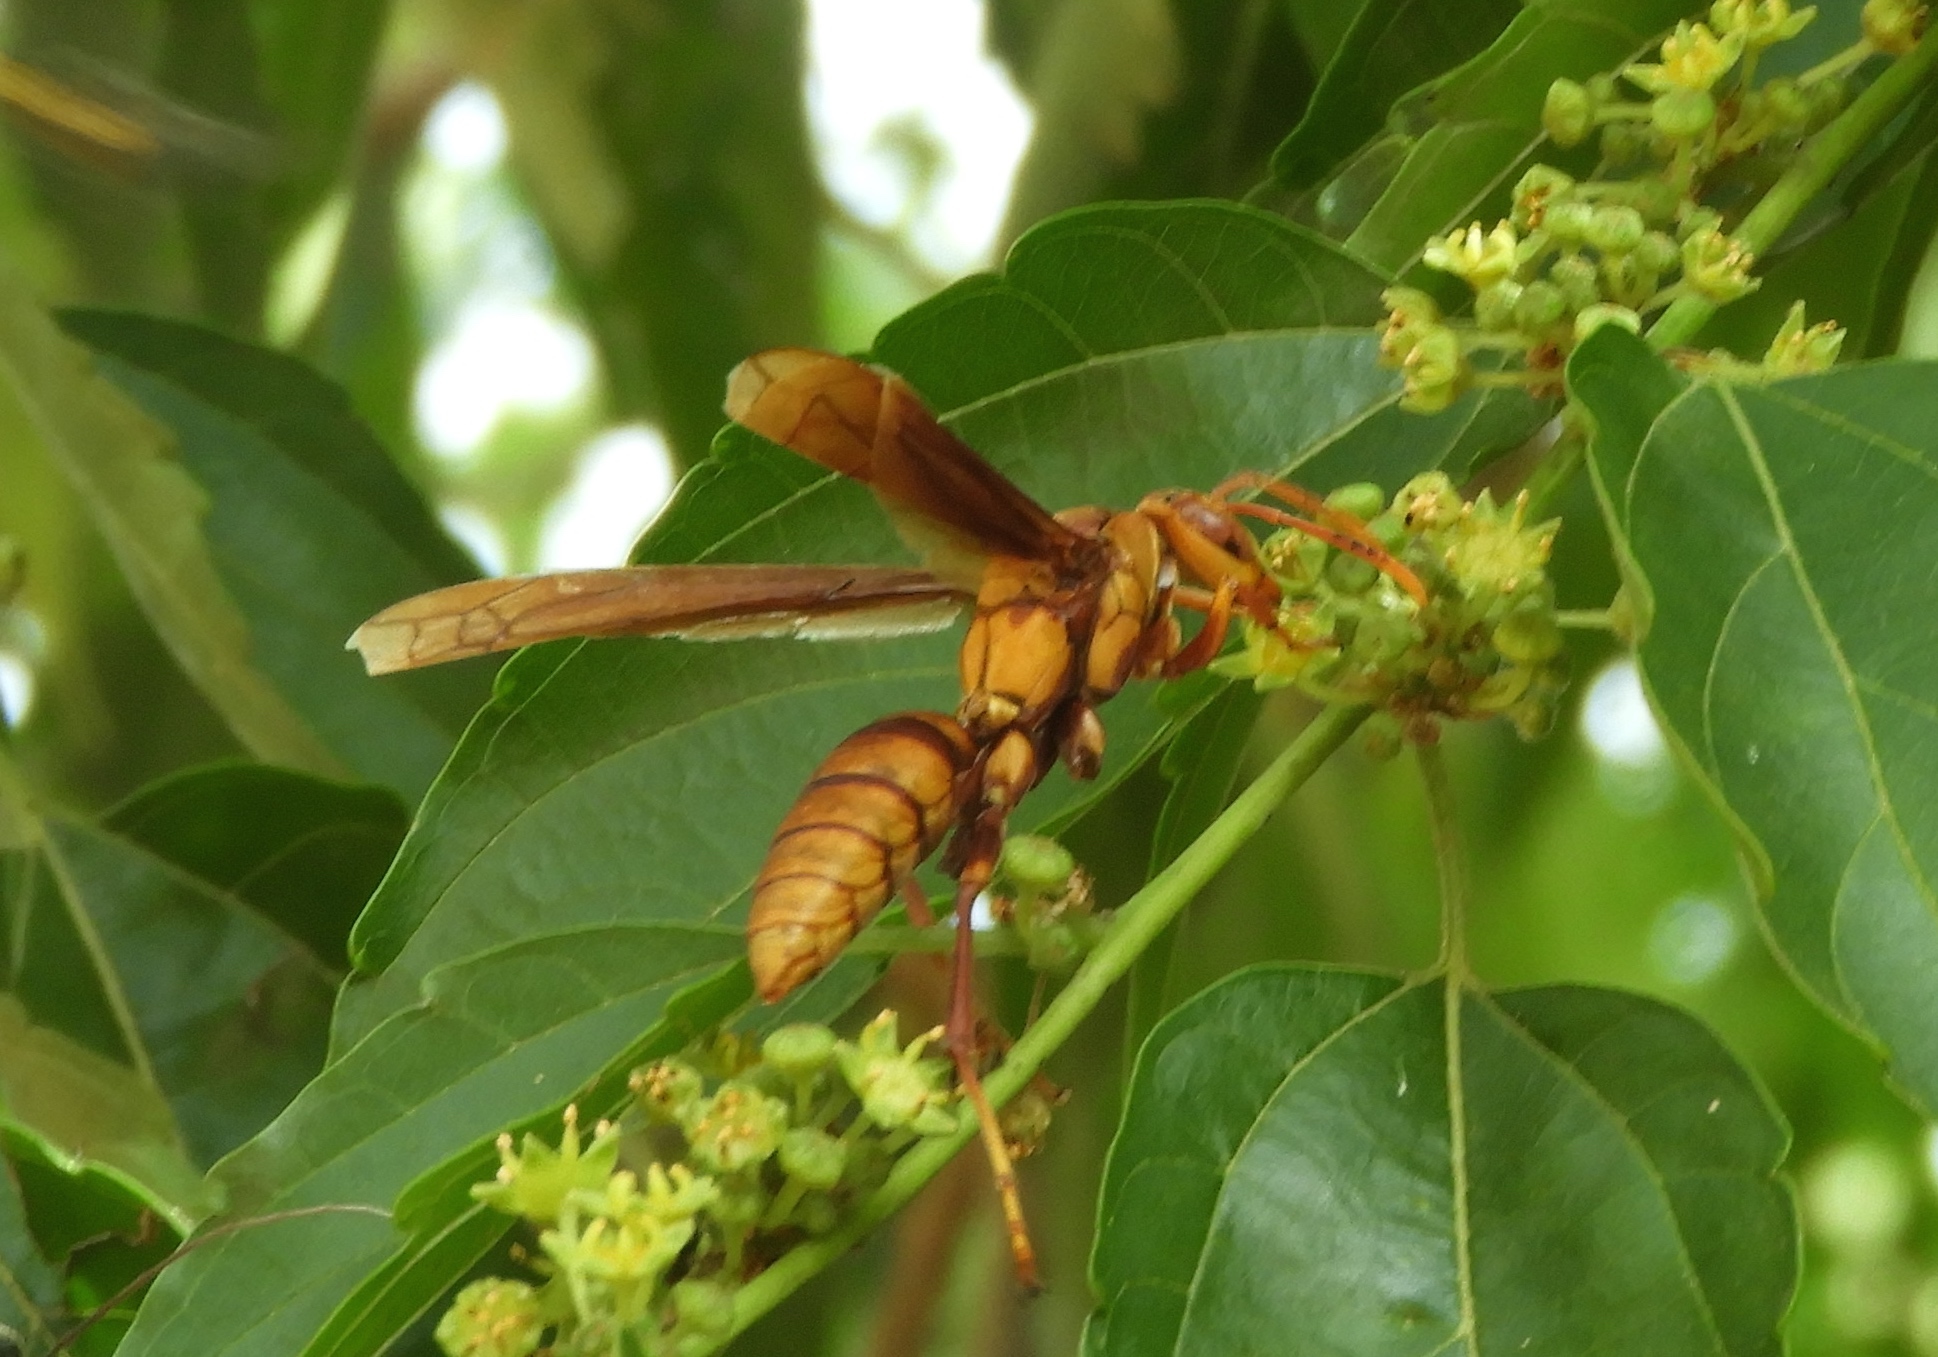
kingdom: Animalia
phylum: Arthropoda
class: Insecta
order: Hymenoptera
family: Eumenidae
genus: Polistes
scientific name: Polistes carnifex
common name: Paper wasp
